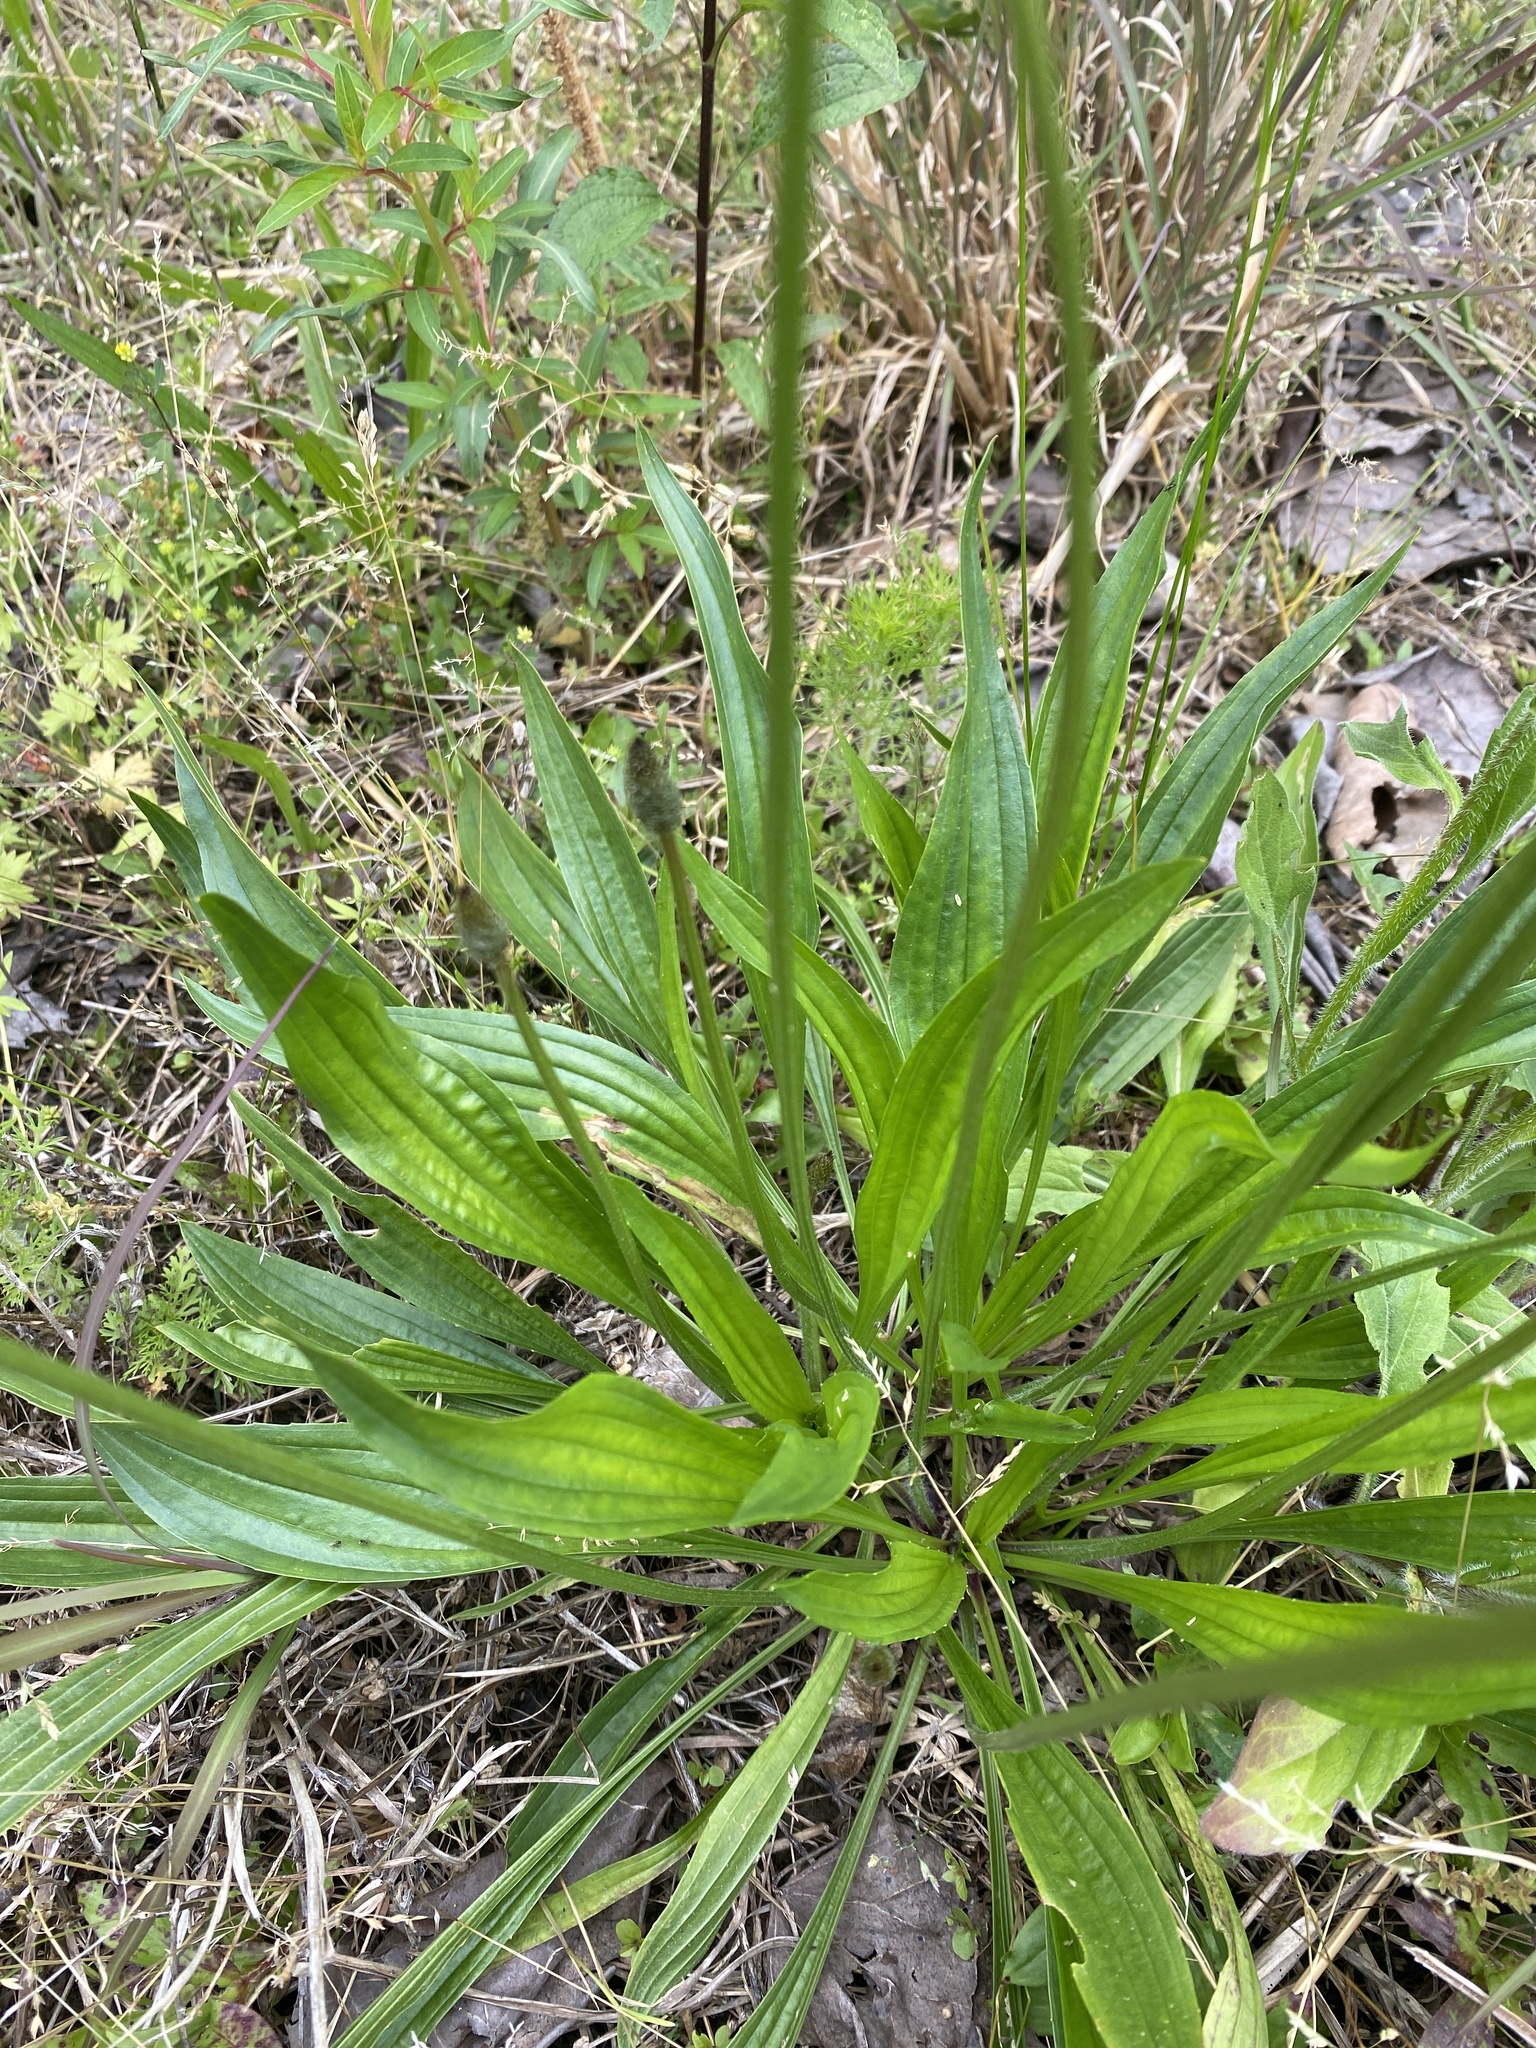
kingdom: Plantae
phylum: Tracheophyta
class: Magnoliopsida
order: Lamiales
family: Plantaginaceae
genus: Plantago
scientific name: Plantago lanceolata
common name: Ribwort plantain
